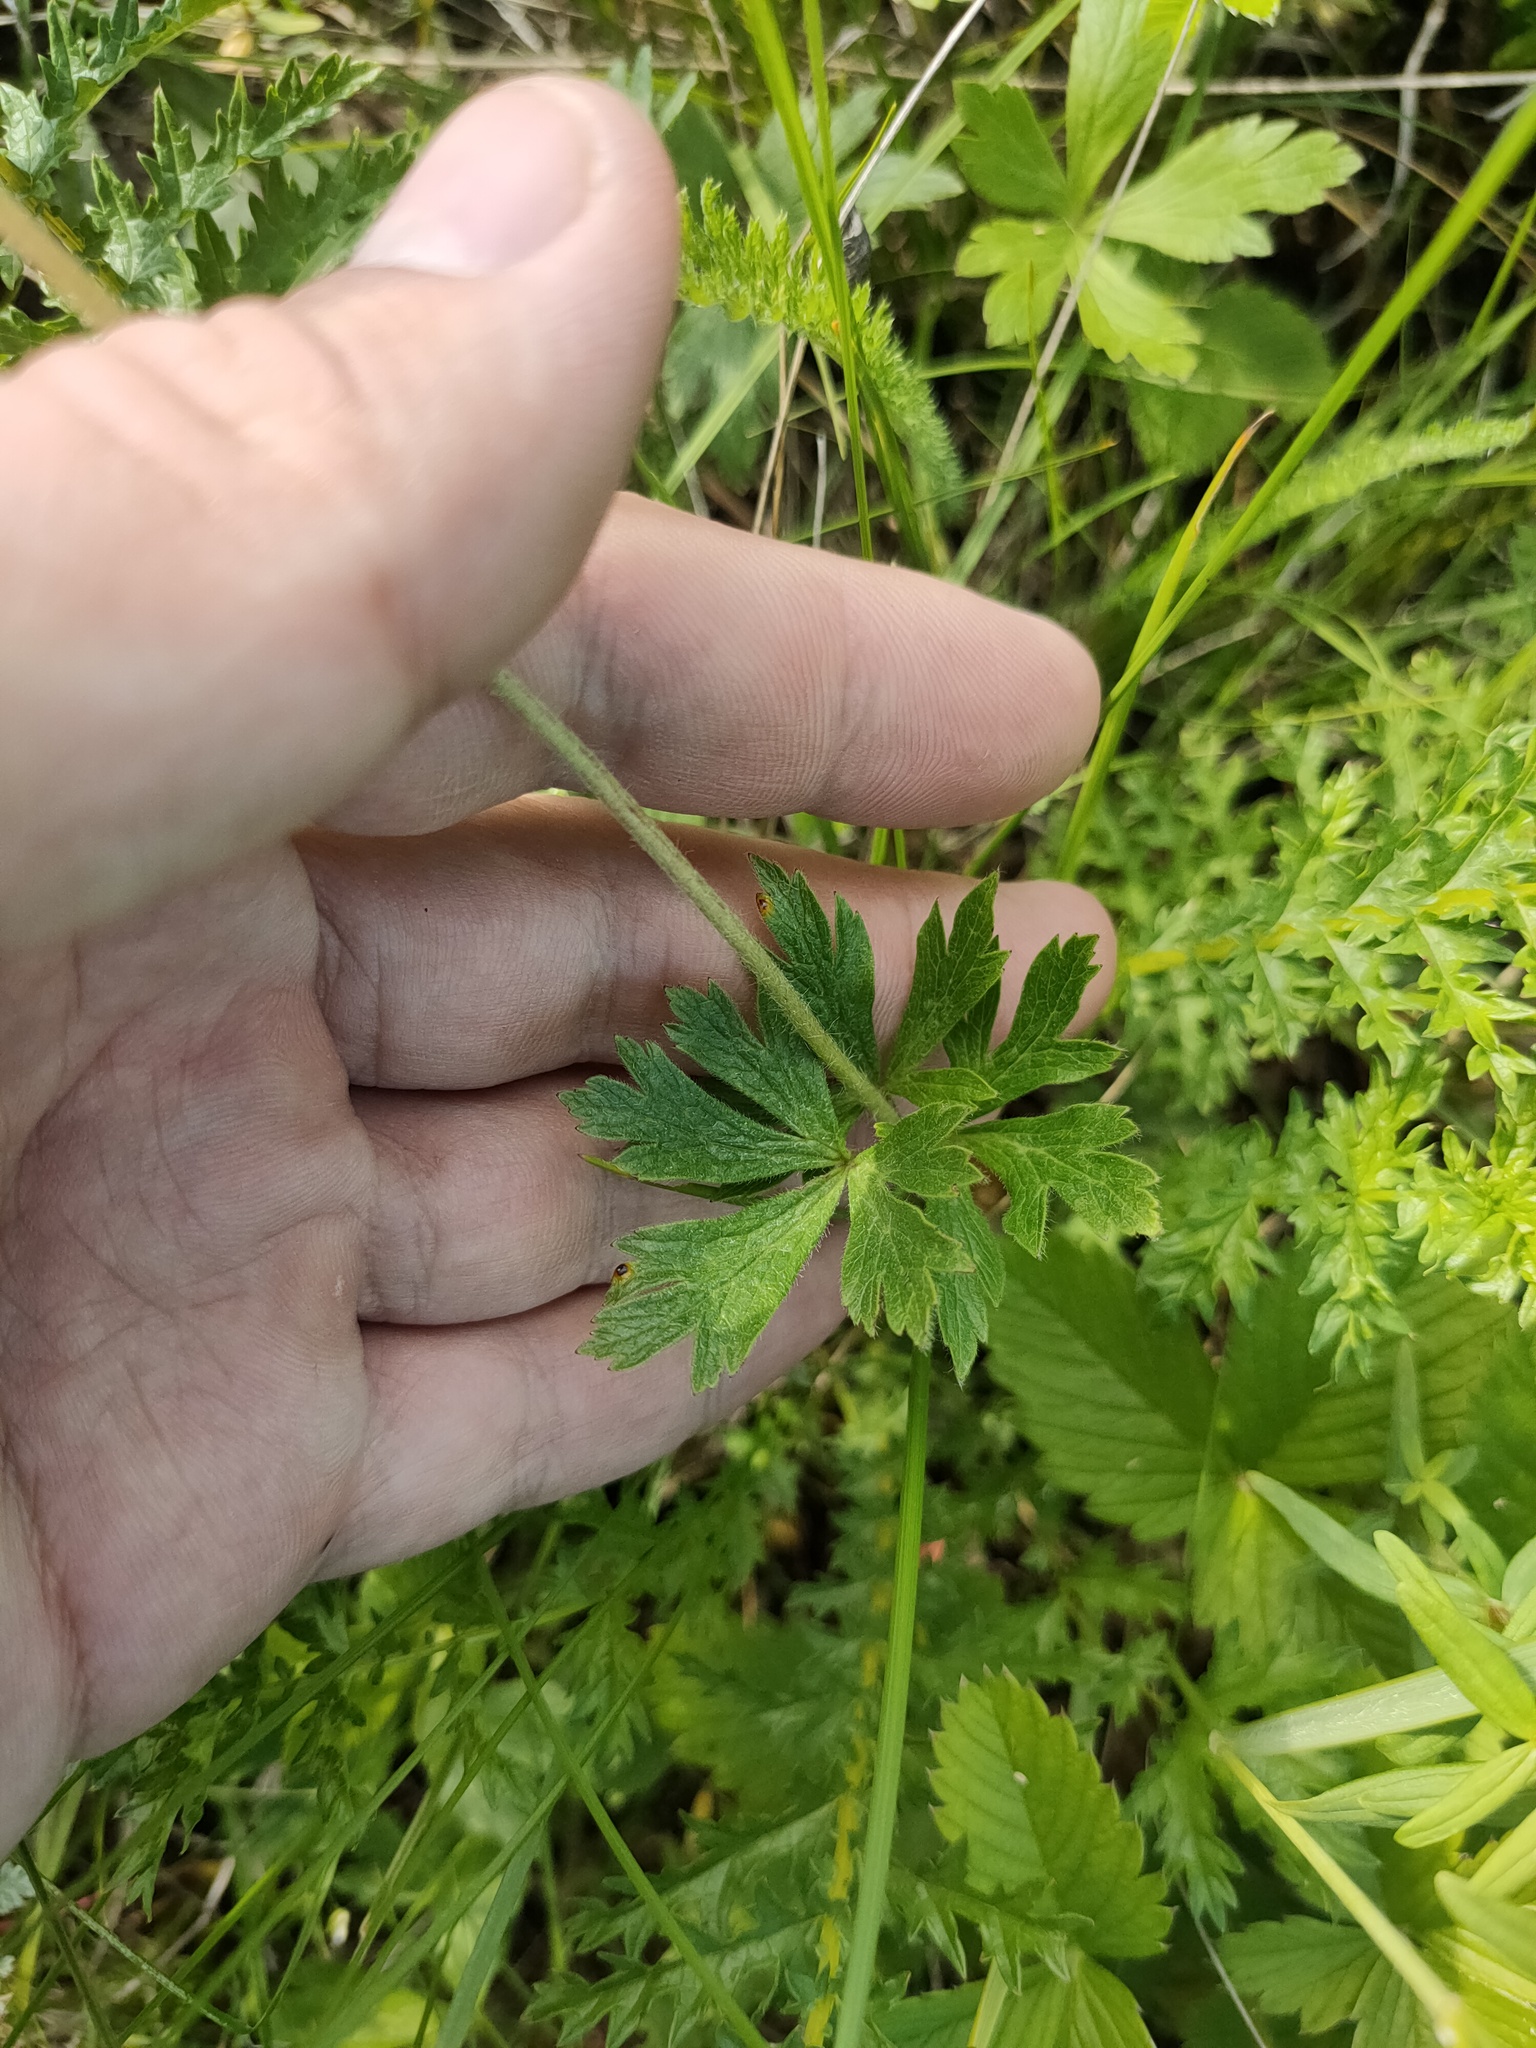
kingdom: Plantae
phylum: Tracheophyta
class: Magnoliopsida
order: Ranunculales
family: Ranunculaceae
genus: Anemone
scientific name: Anemone sylvestris
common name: Snowdrop anemone
